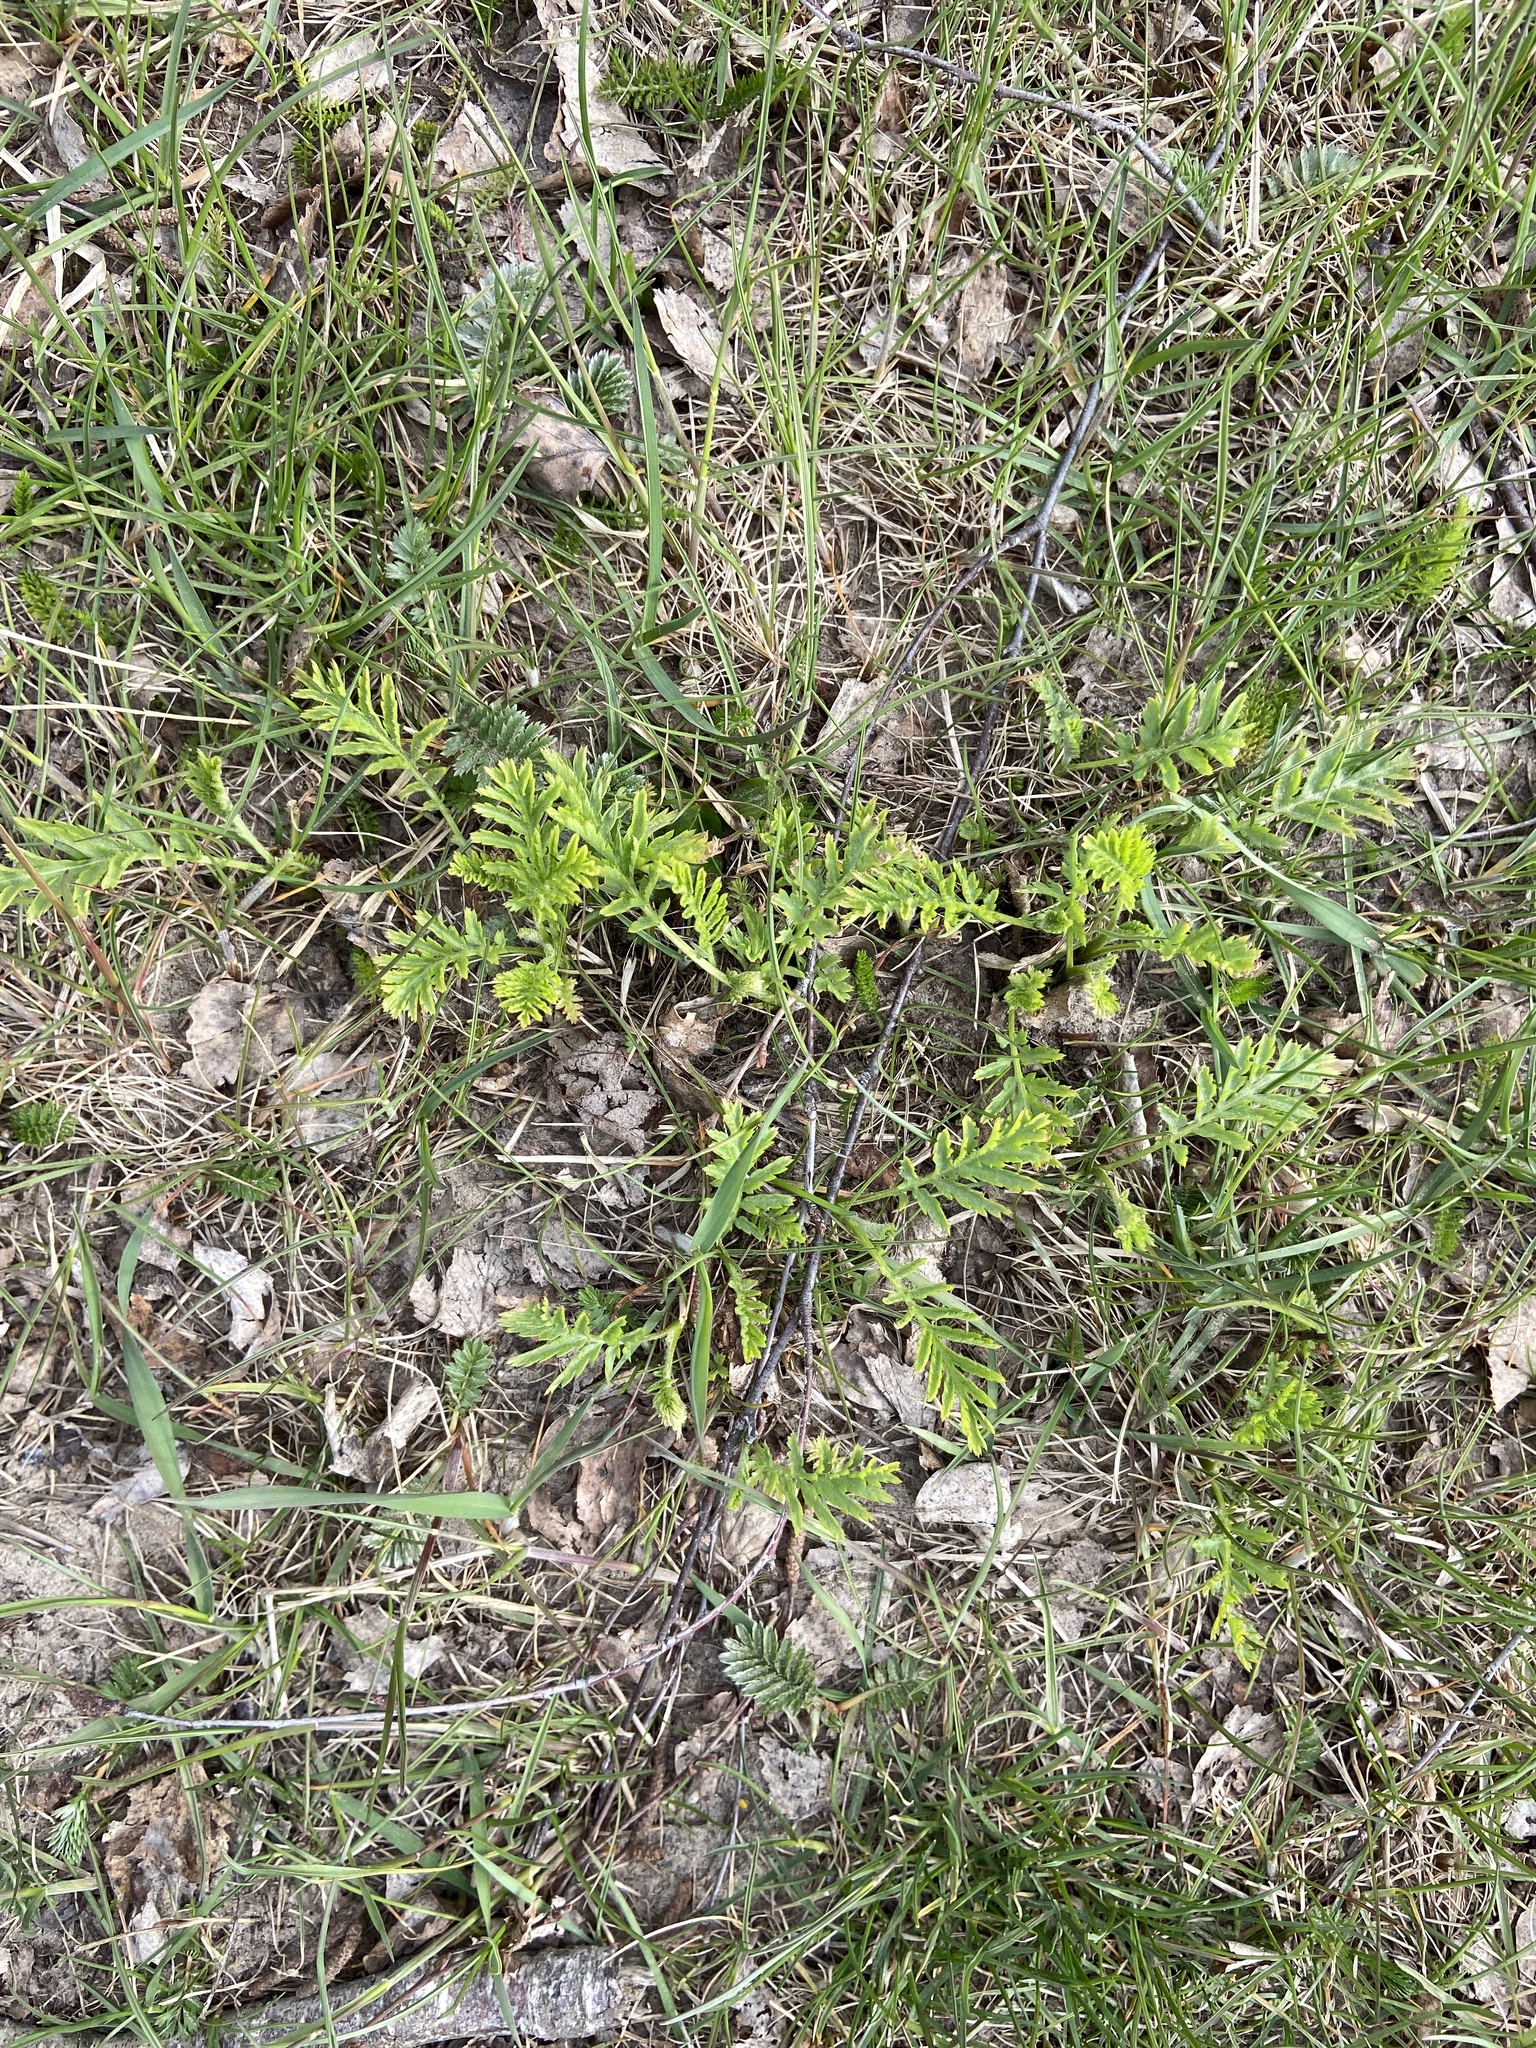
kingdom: Plantae
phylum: Tracheophyta
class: Magnoliopsida
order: Asterales
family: Asteraceae
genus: Tanacetum
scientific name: Tanacetum vulgare
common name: Common tansy
